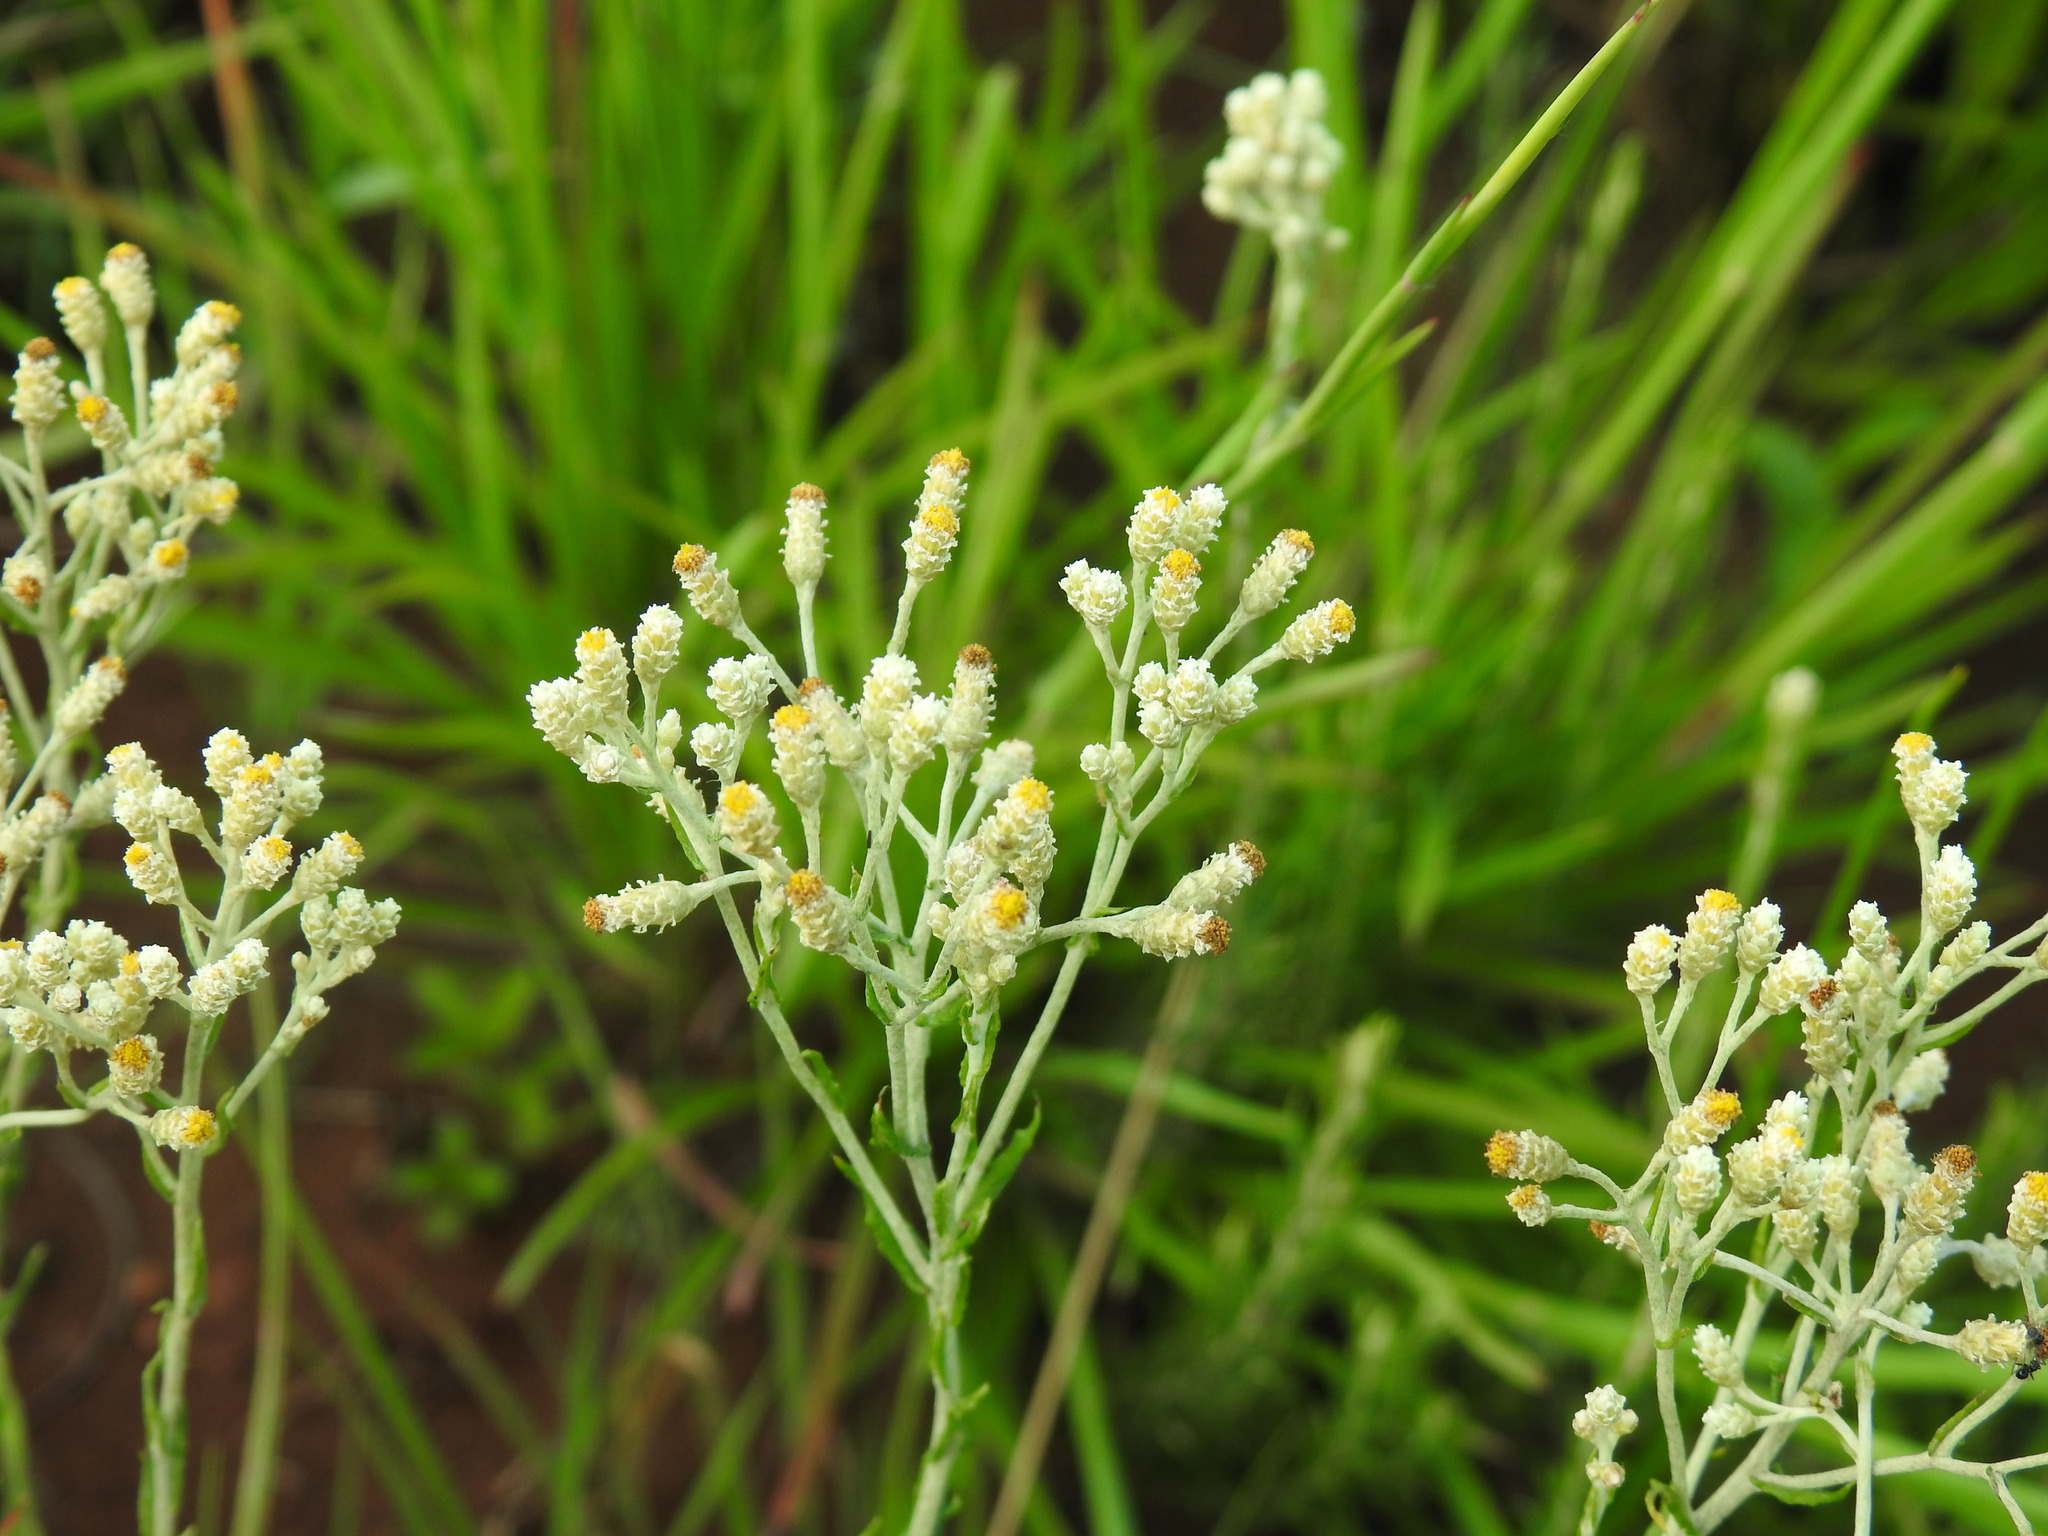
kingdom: Plantae
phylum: Tracheophyta
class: Magnoliopsida
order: Asterales
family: Asteraceae
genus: Helichrysum
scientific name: Helichrysum rugulosum
